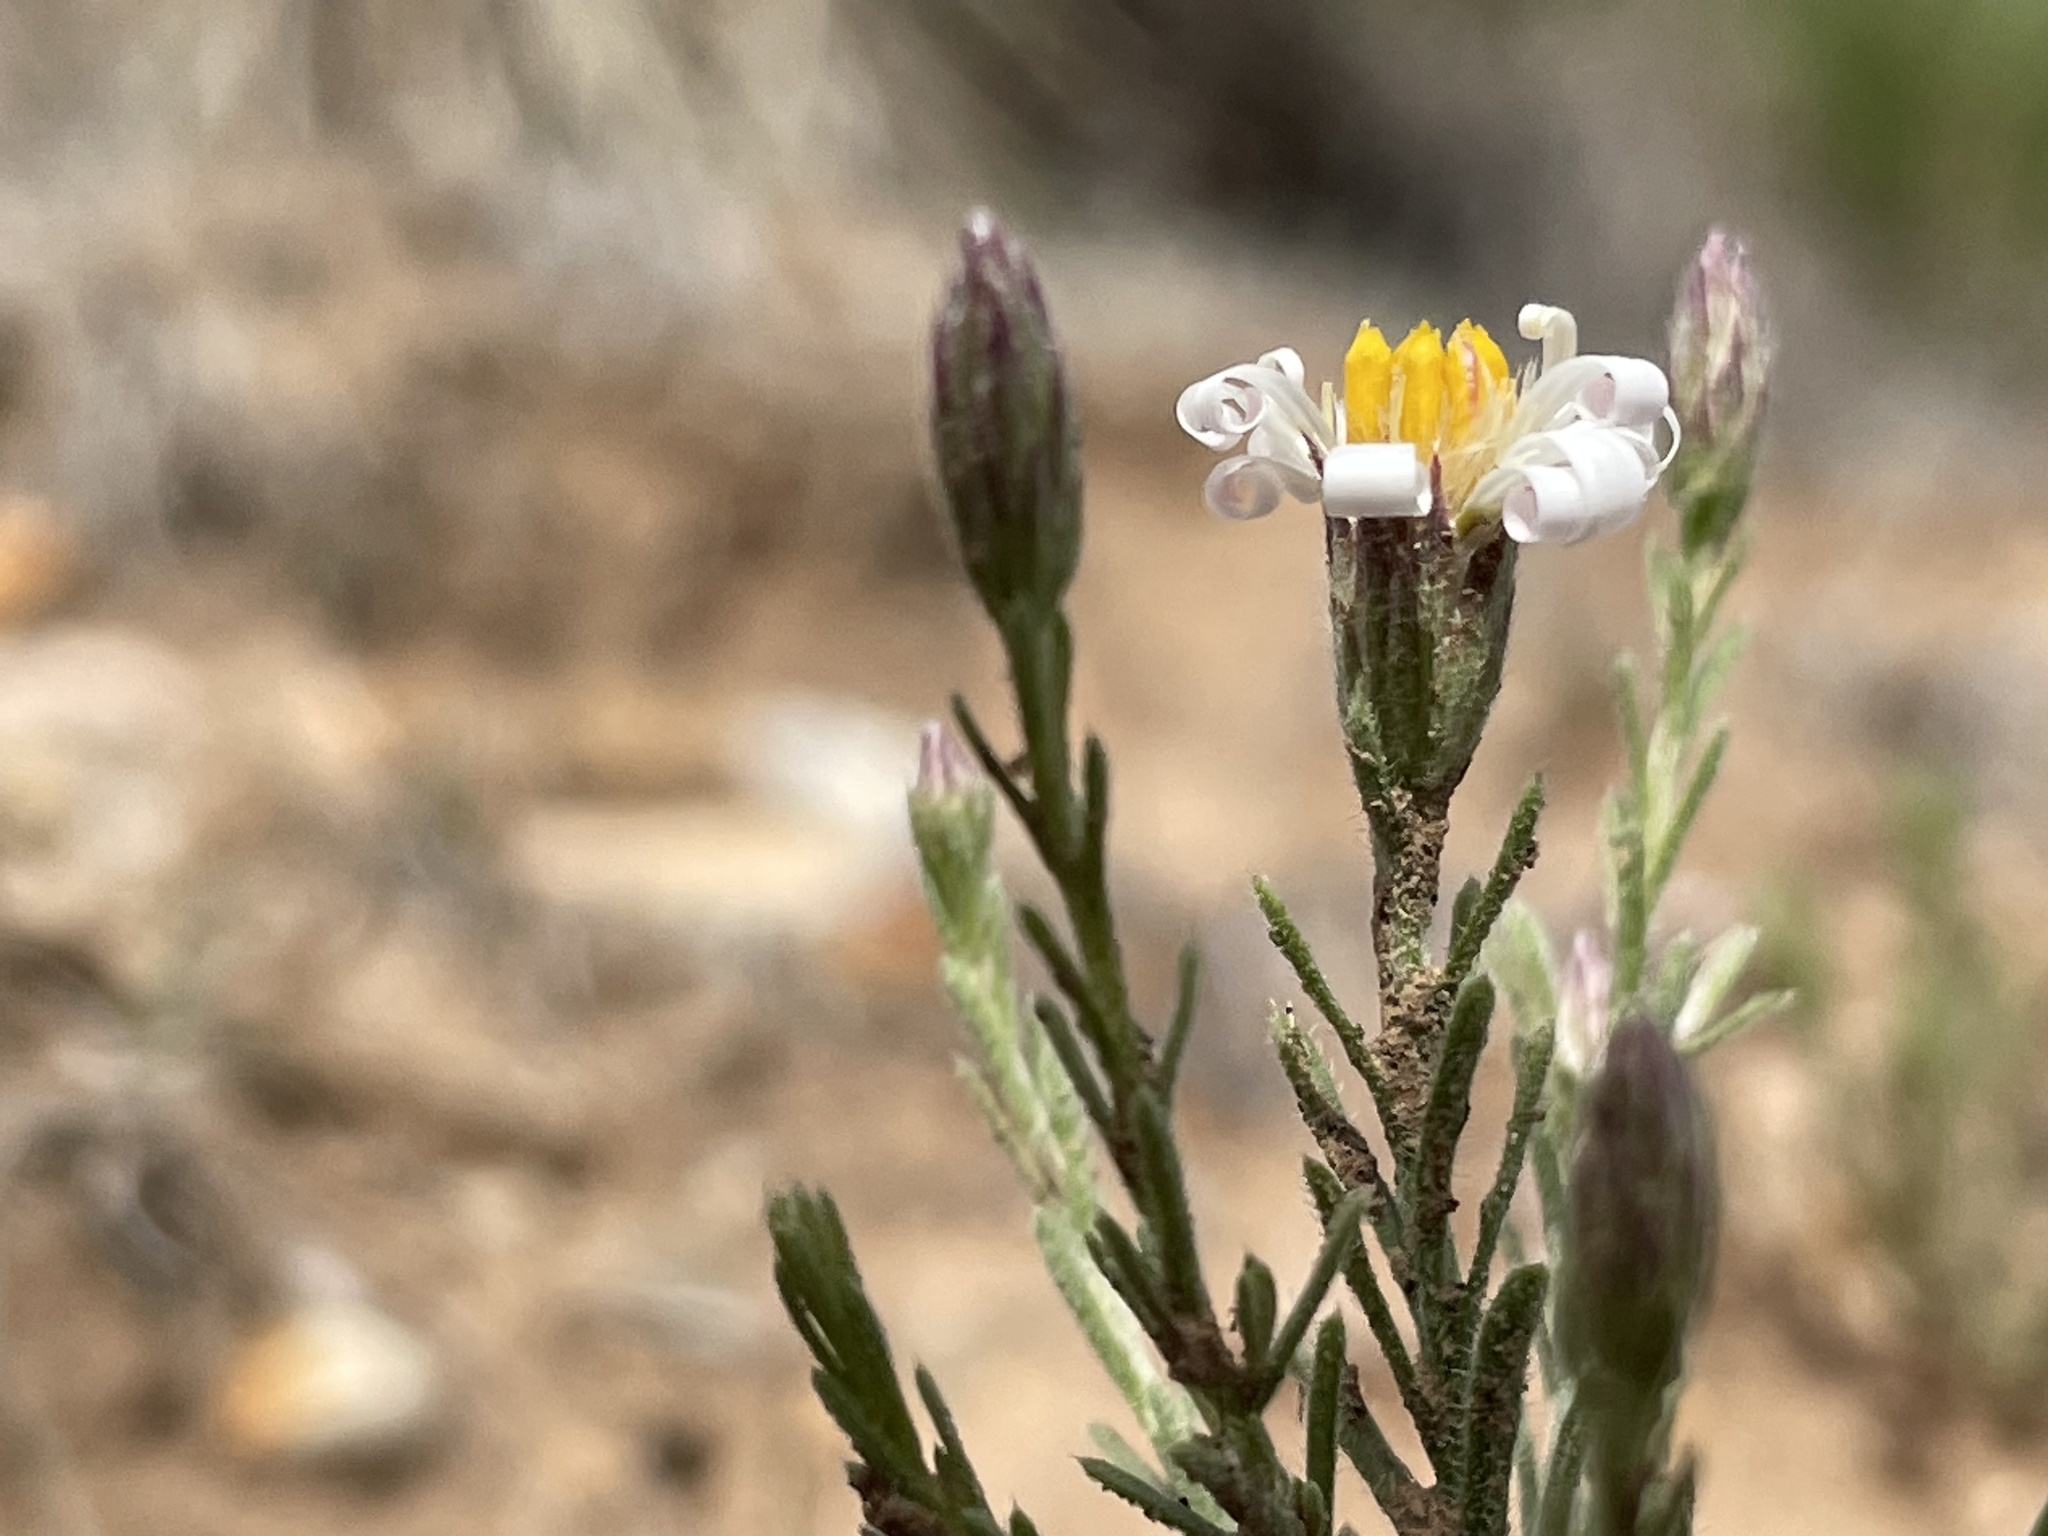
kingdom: Plantae
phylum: Tracheophyta
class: Magnoliopsida
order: Asterales
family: Asteraceae
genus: Chaetopappa
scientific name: Chaetopappa ericoides
